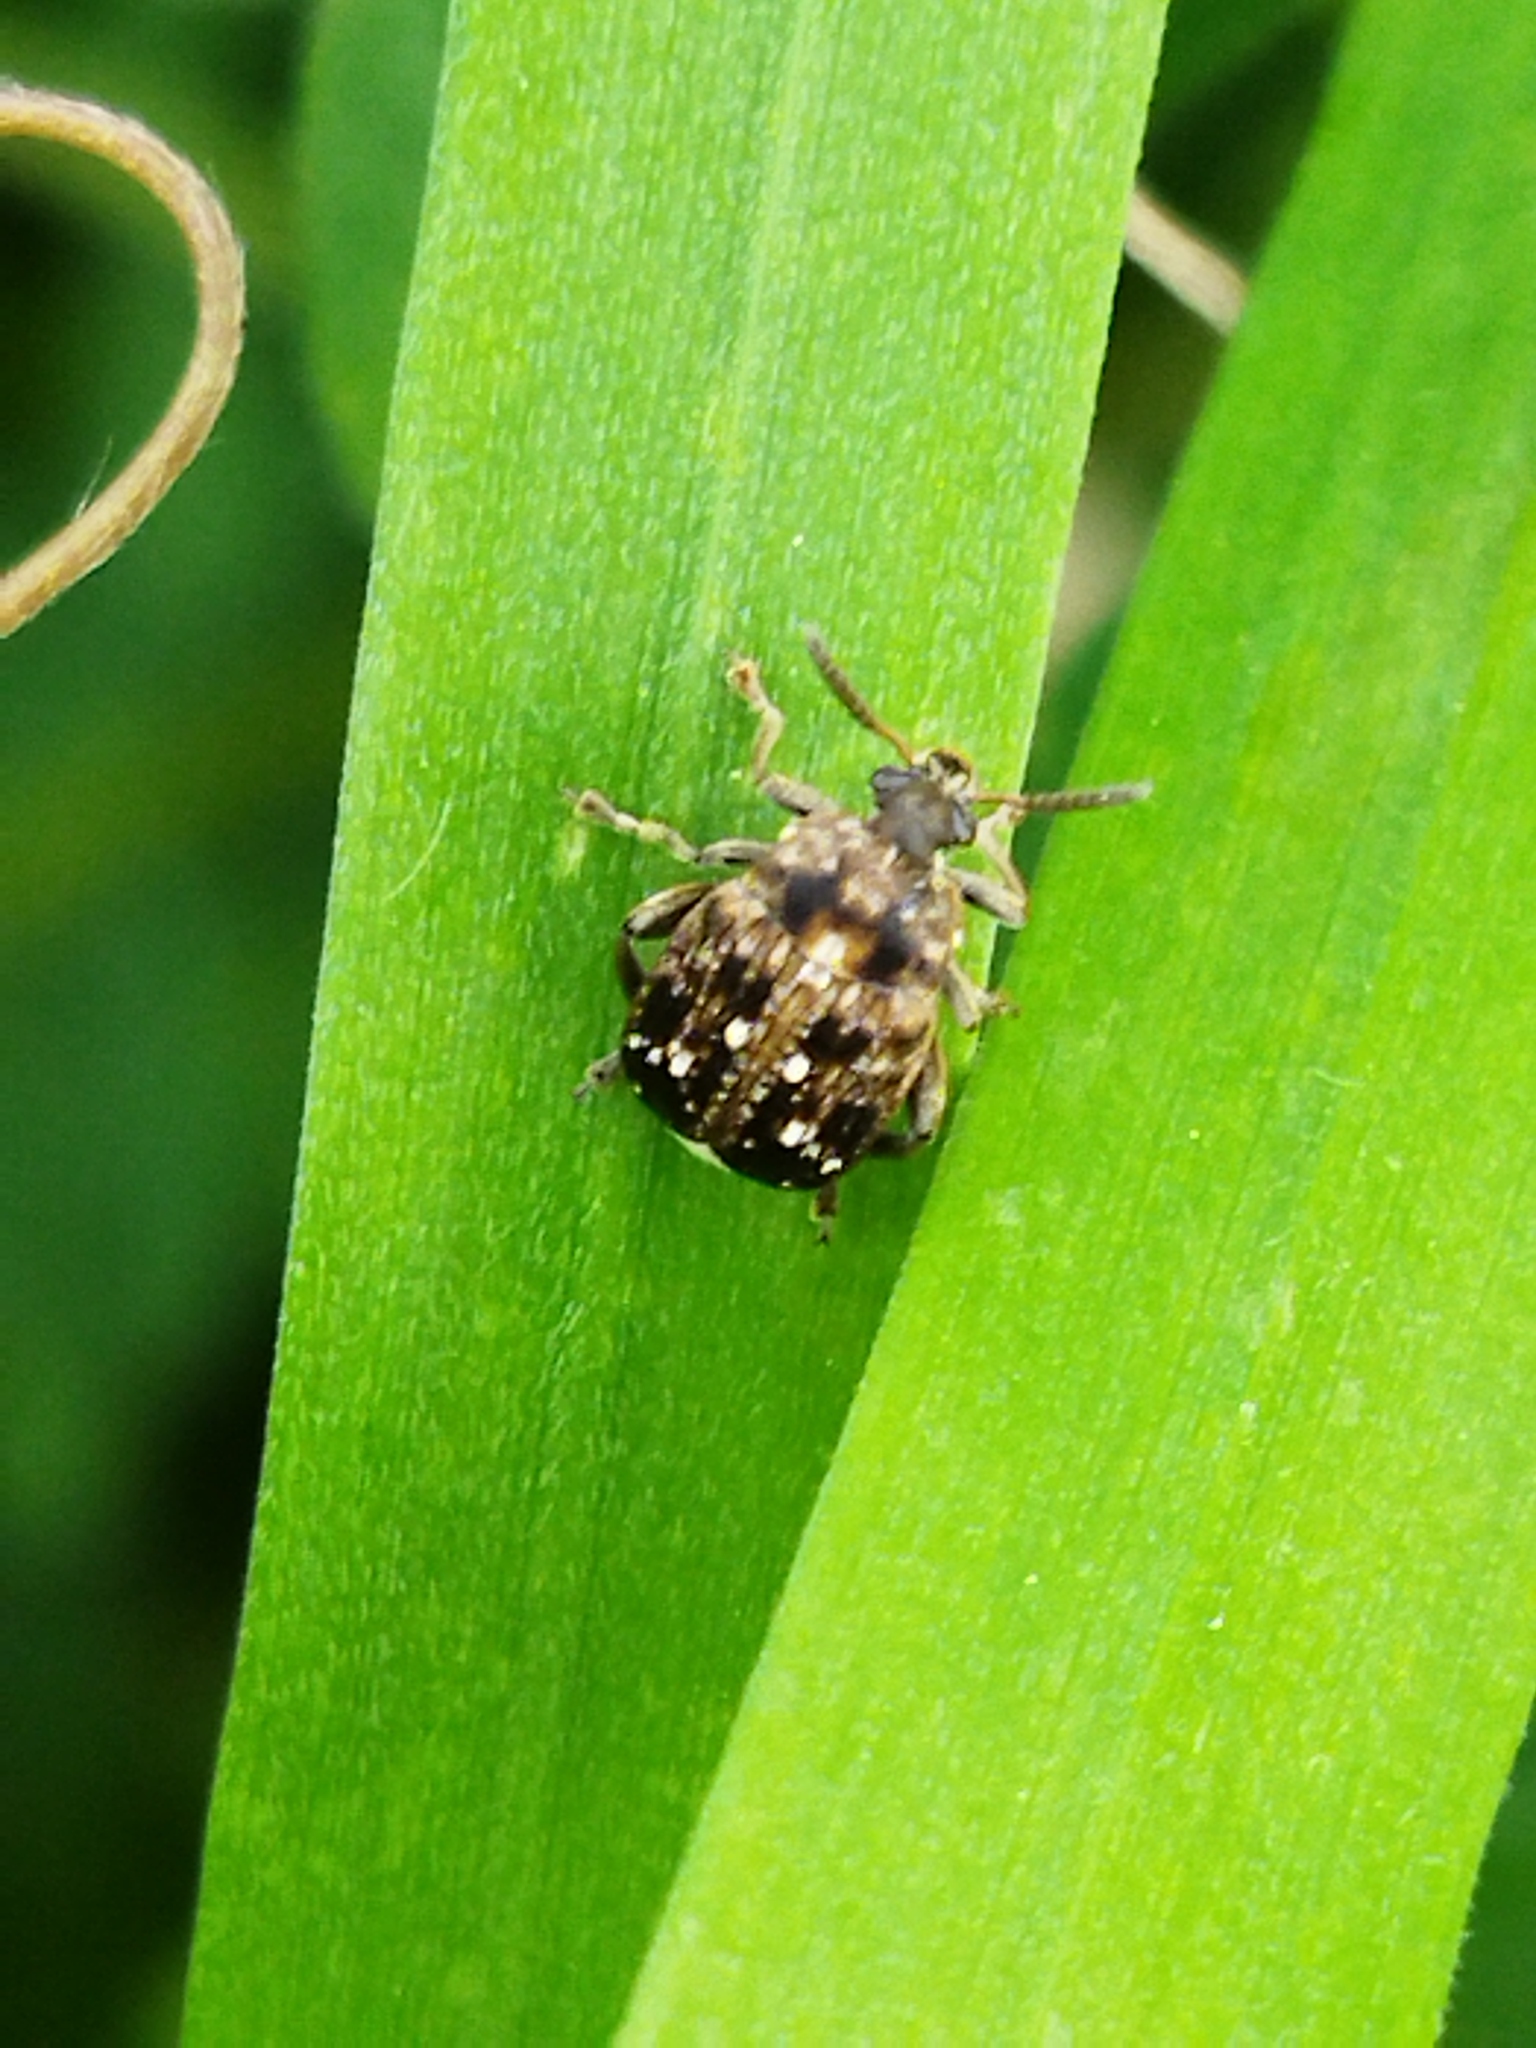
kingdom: Animalia
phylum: Arthropoda
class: Insecta
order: Coleoptera
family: Chrysomelidae
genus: Bruchus
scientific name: Bruchus pisorum
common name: Pea weevil
